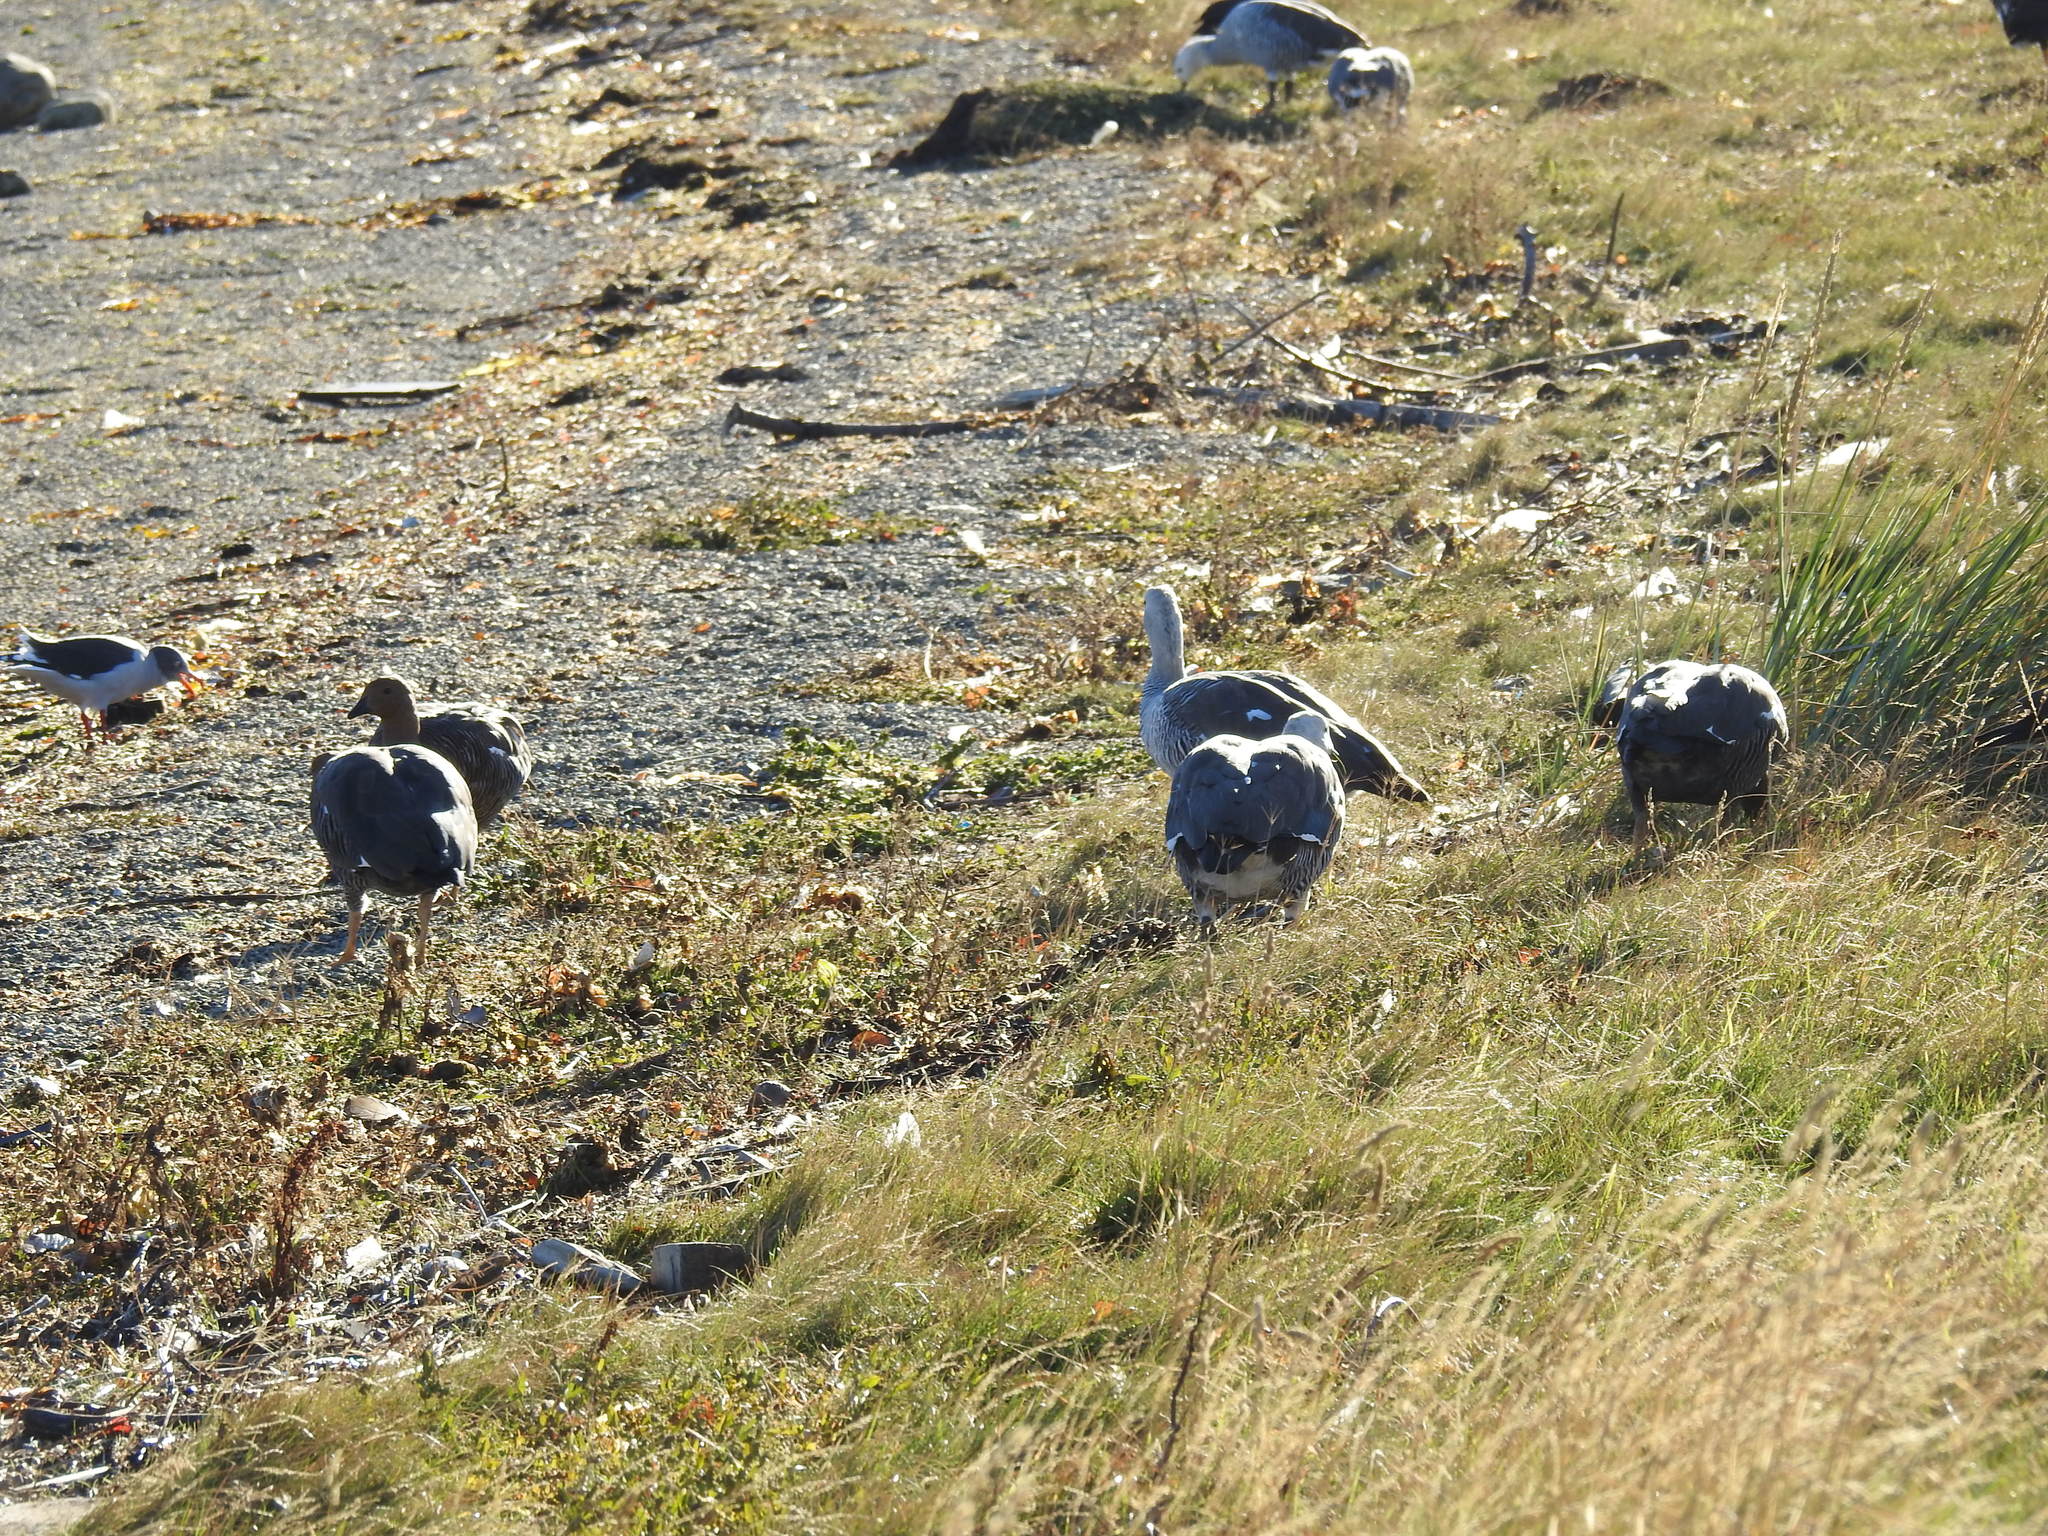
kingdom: Animalia
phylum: Chordata
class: Aves
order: Anseriformes
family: Anatidae
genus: Chloephaga
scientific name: Chloephaga picta
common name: Upland goose
